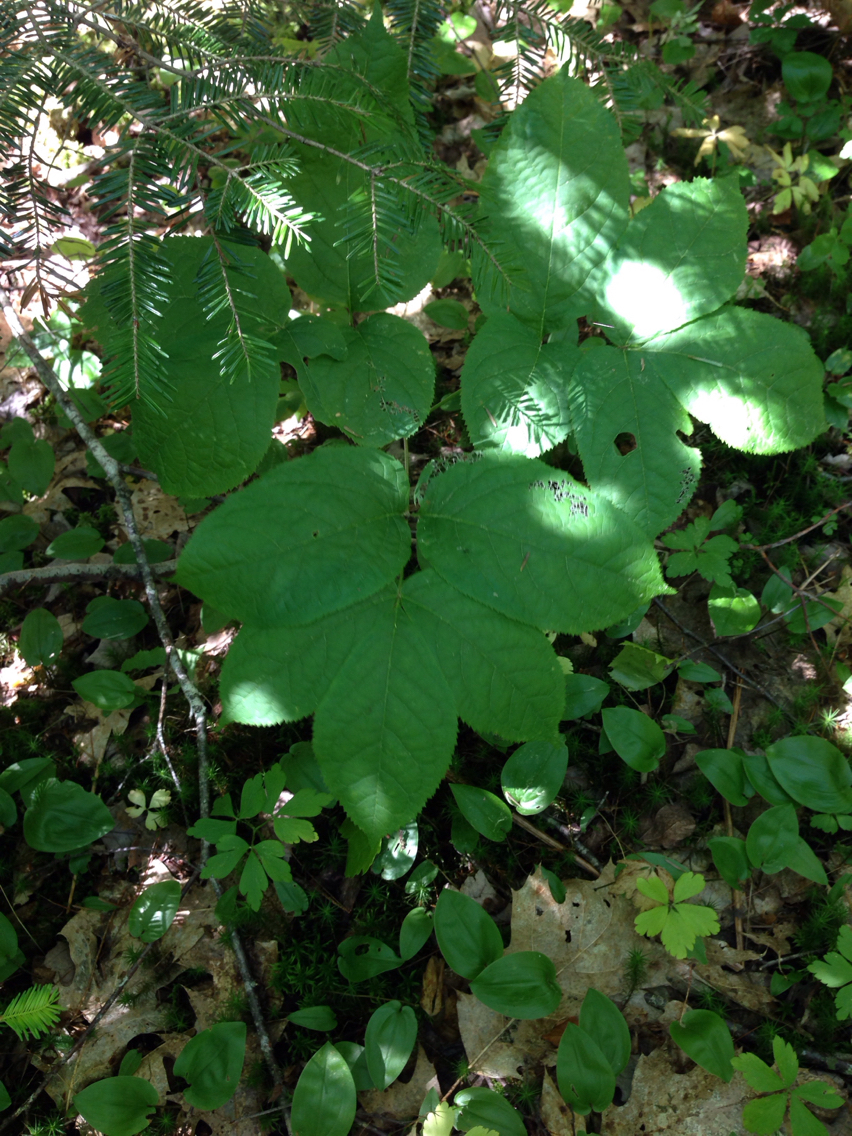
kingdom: Plantae
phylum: Tracheophyta
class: Magnoliopsida
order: Apiales
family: Araliaceae
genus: Aralia
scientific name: Aralia nudicaulis
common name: Wild sarsaparilla
